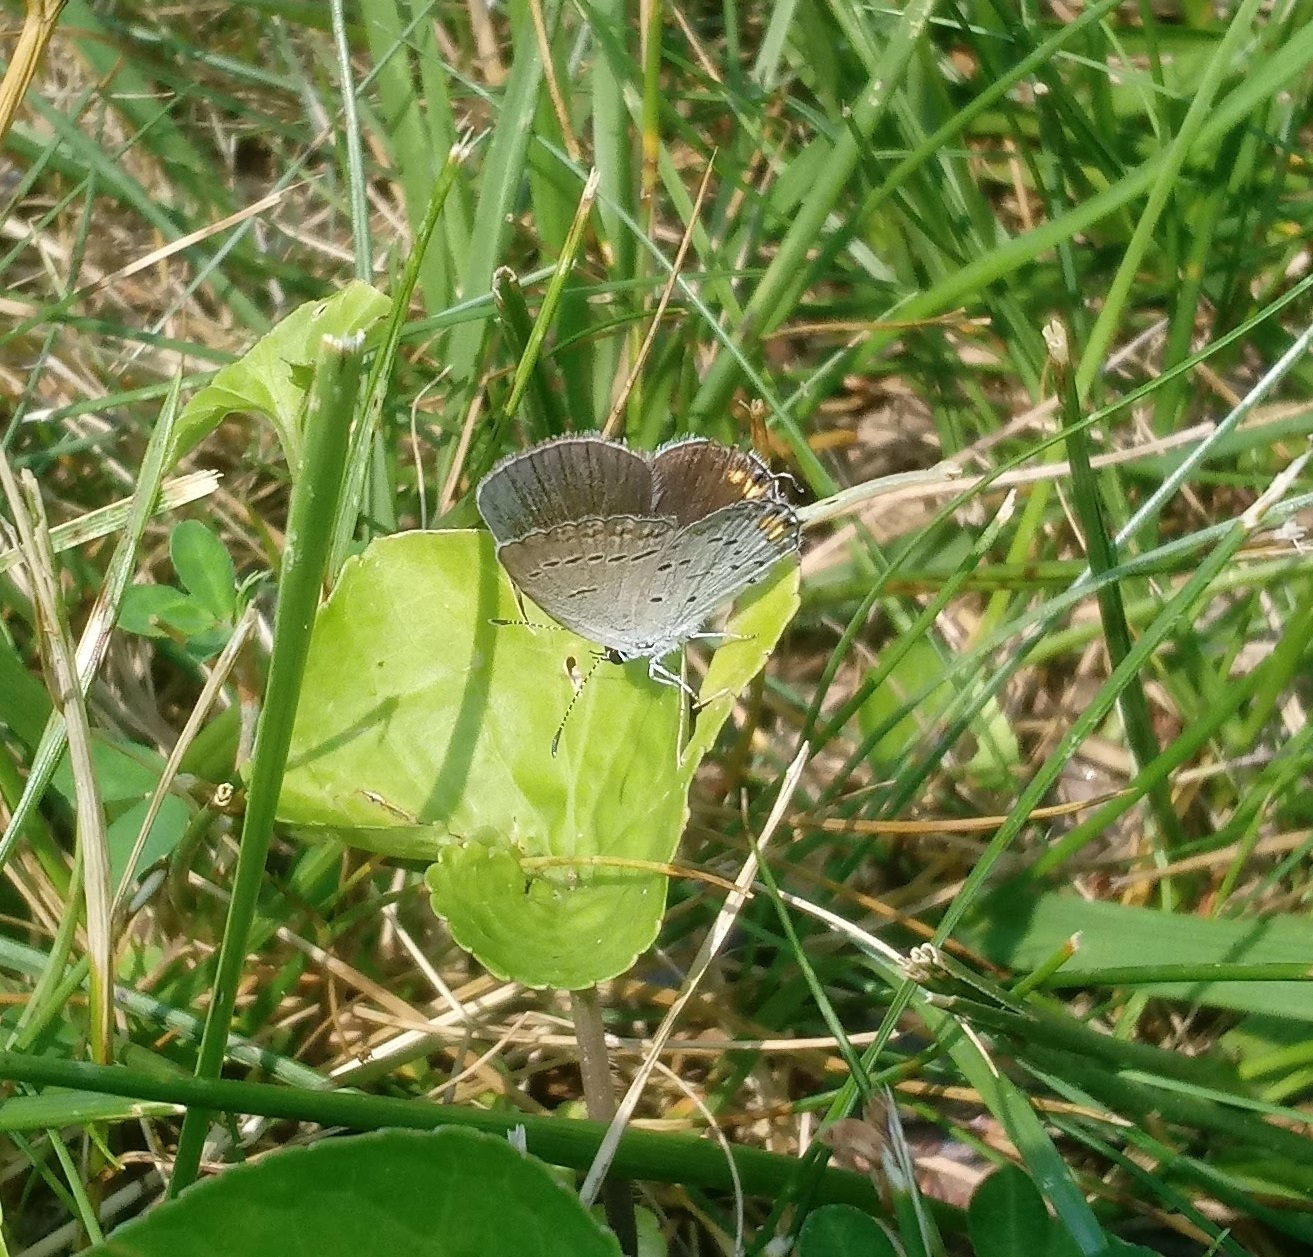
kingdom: Animalia
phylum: Arthropoda
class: Insecta
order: Lepidoptera
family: Lycaenidae
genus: Elkalyce
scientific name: Elkalyce comyntas
